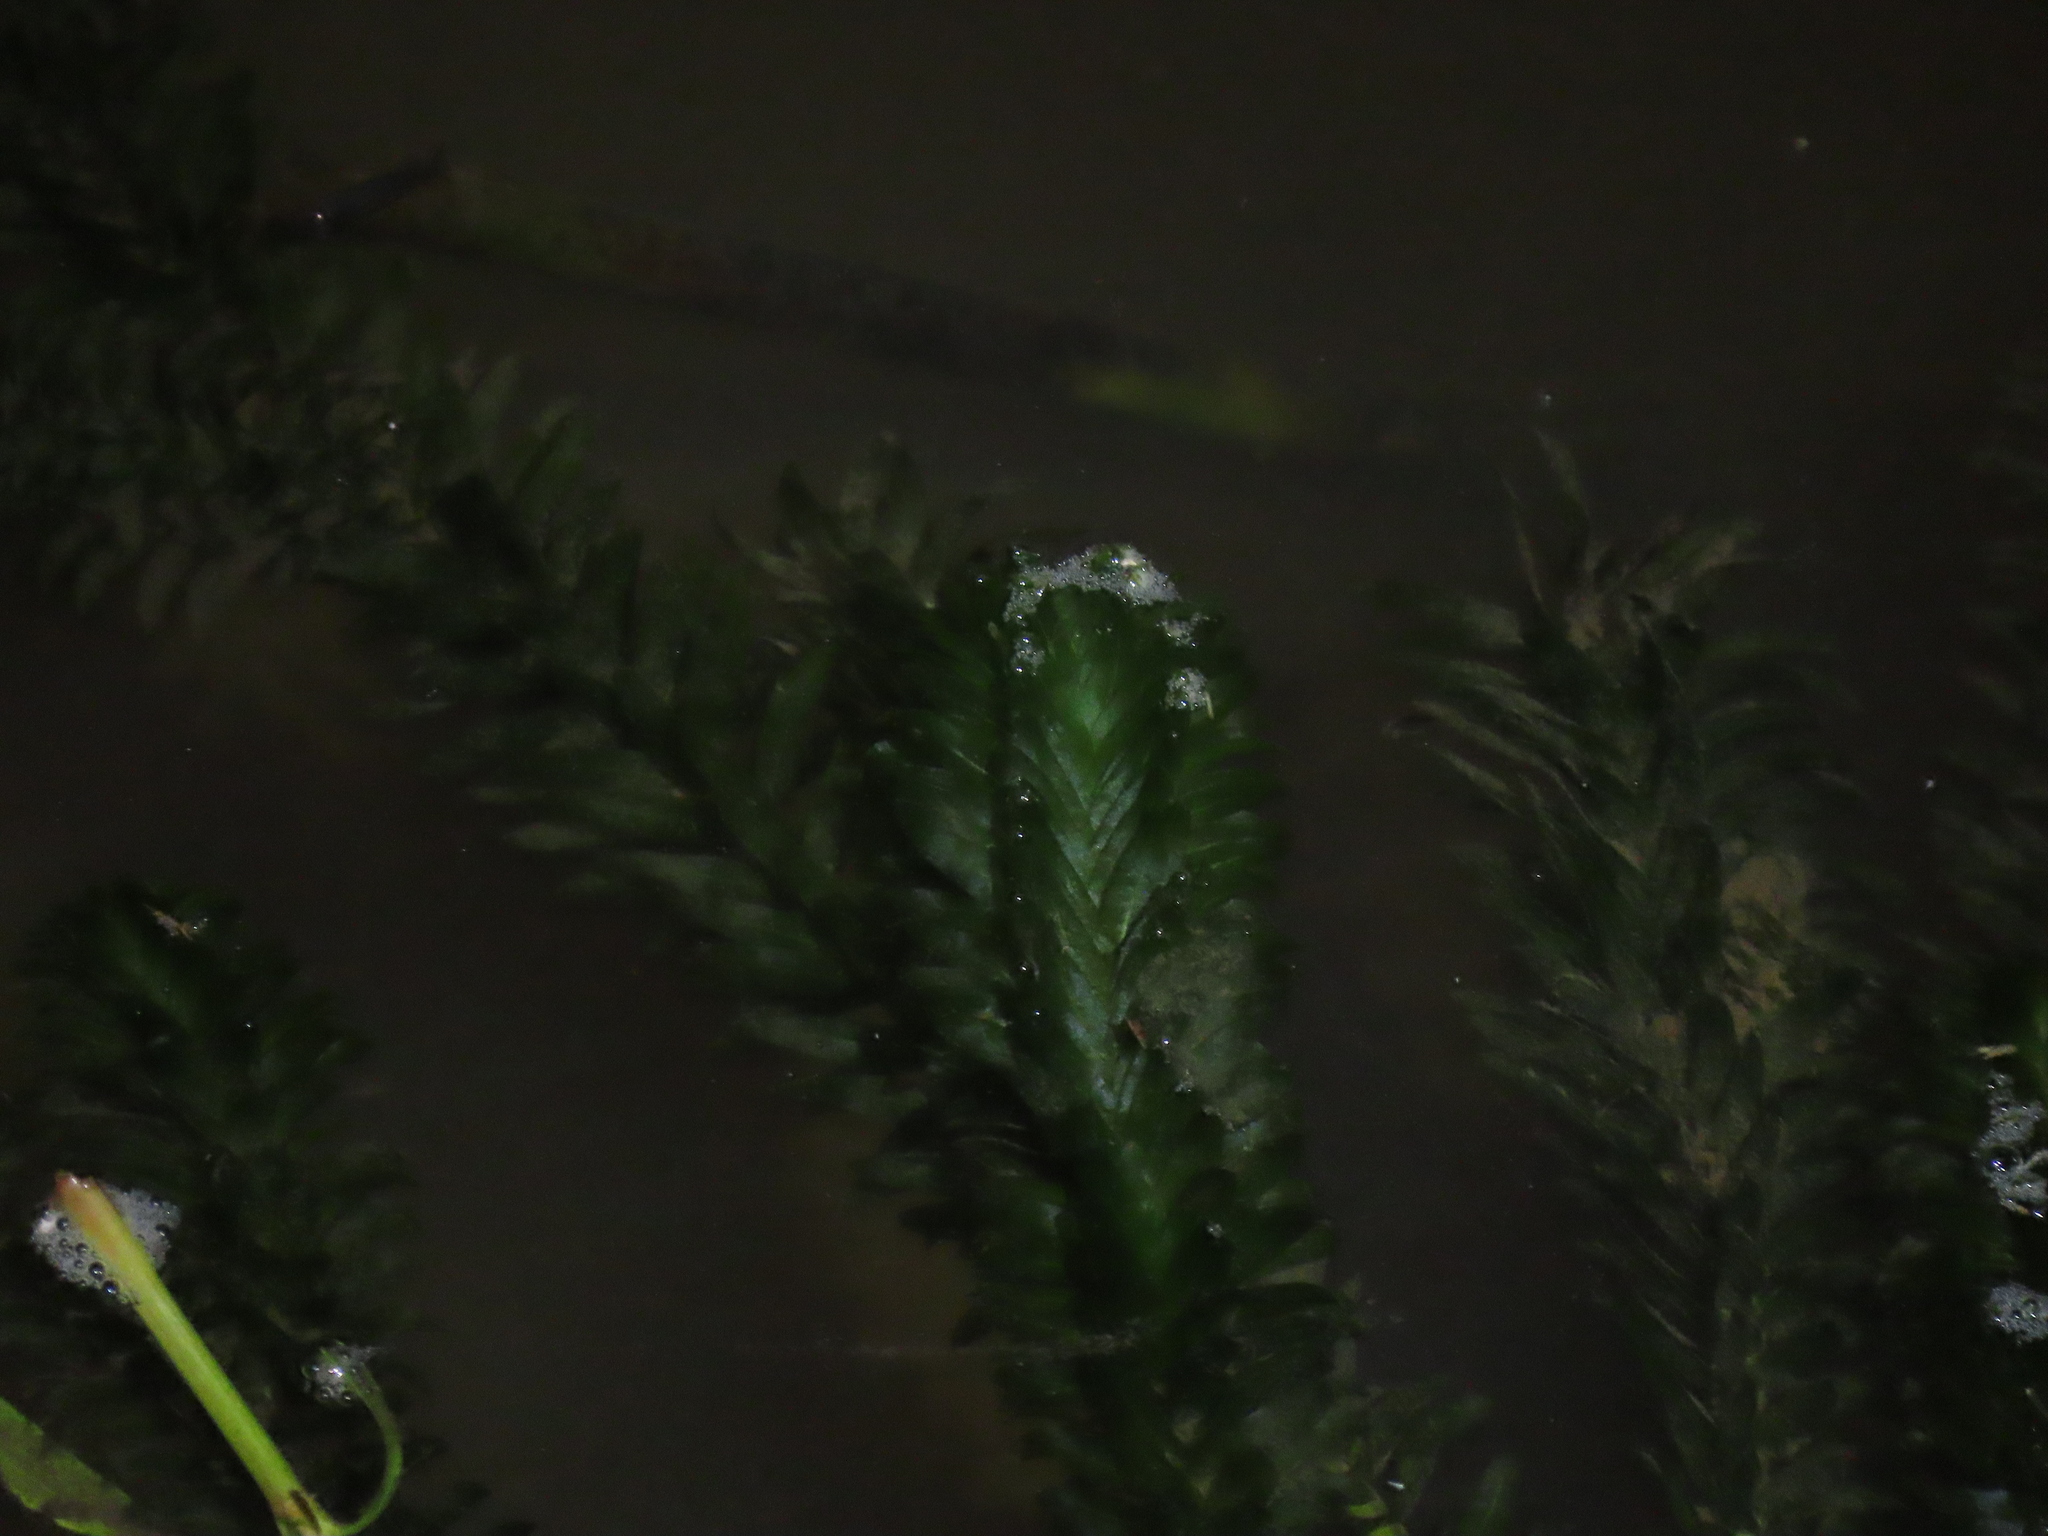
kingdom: Plantae
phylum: Tracheophyta
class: Liliopsida
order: Alismatales
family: Hydrocharitaceae
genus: Elodea
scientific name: Elodea densa
